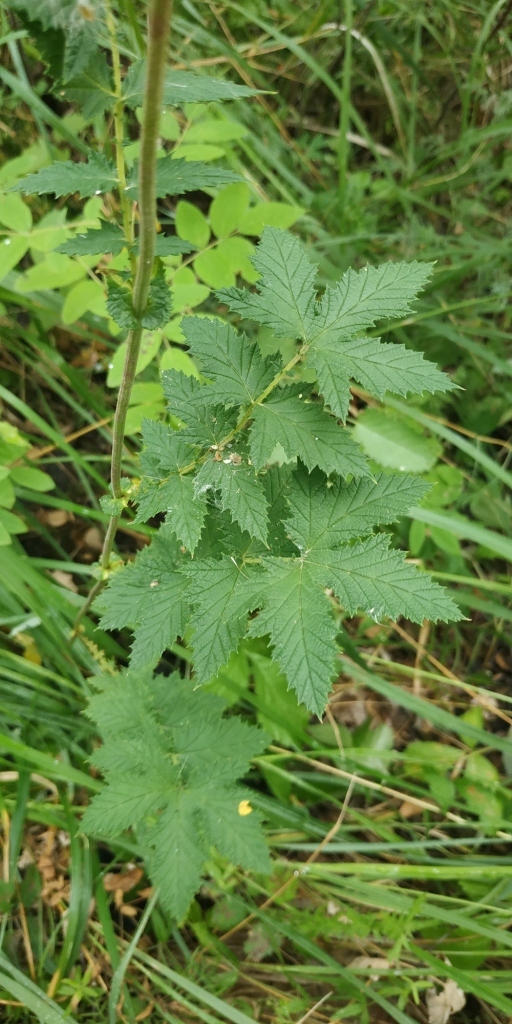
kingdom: Plantae
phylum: Tracheophyta
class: Magnoliopsida
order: Rosales
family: Rosaceae
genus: Filipendula
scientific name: Filipendula ulmaria
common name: Meadowsweet
